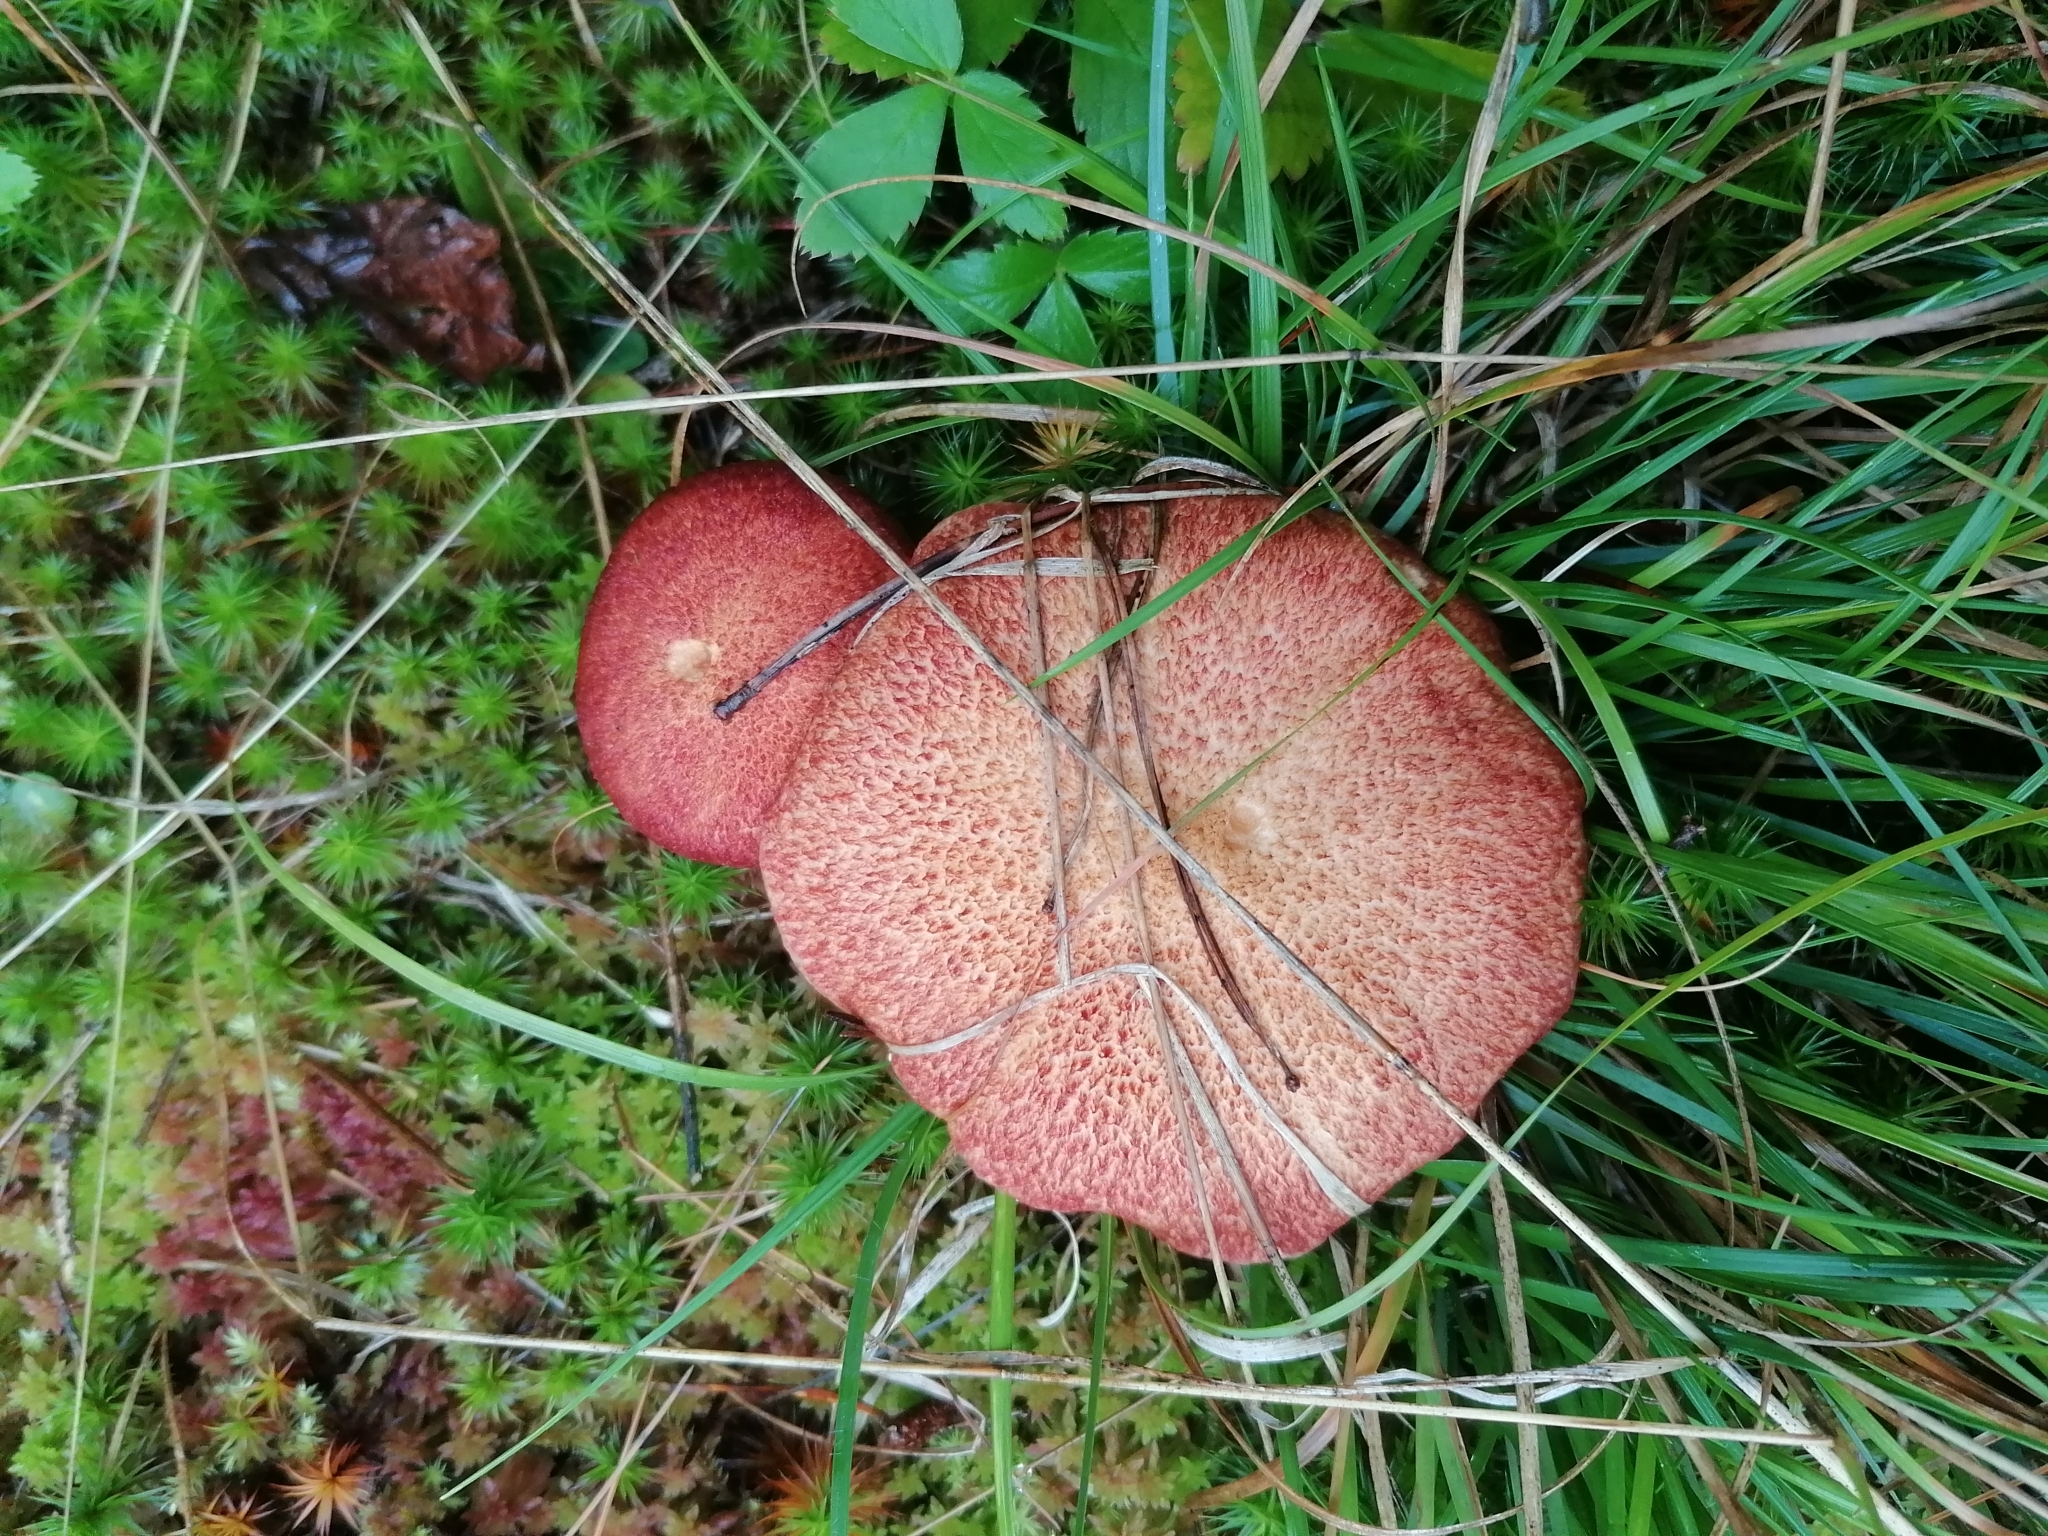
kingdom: Fungi
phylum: Basidiomycota
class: Agaricomycetes
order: Boletales
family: Suillaceae
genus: Suillus
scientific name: Suillus spraguei
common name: Painted suillus
